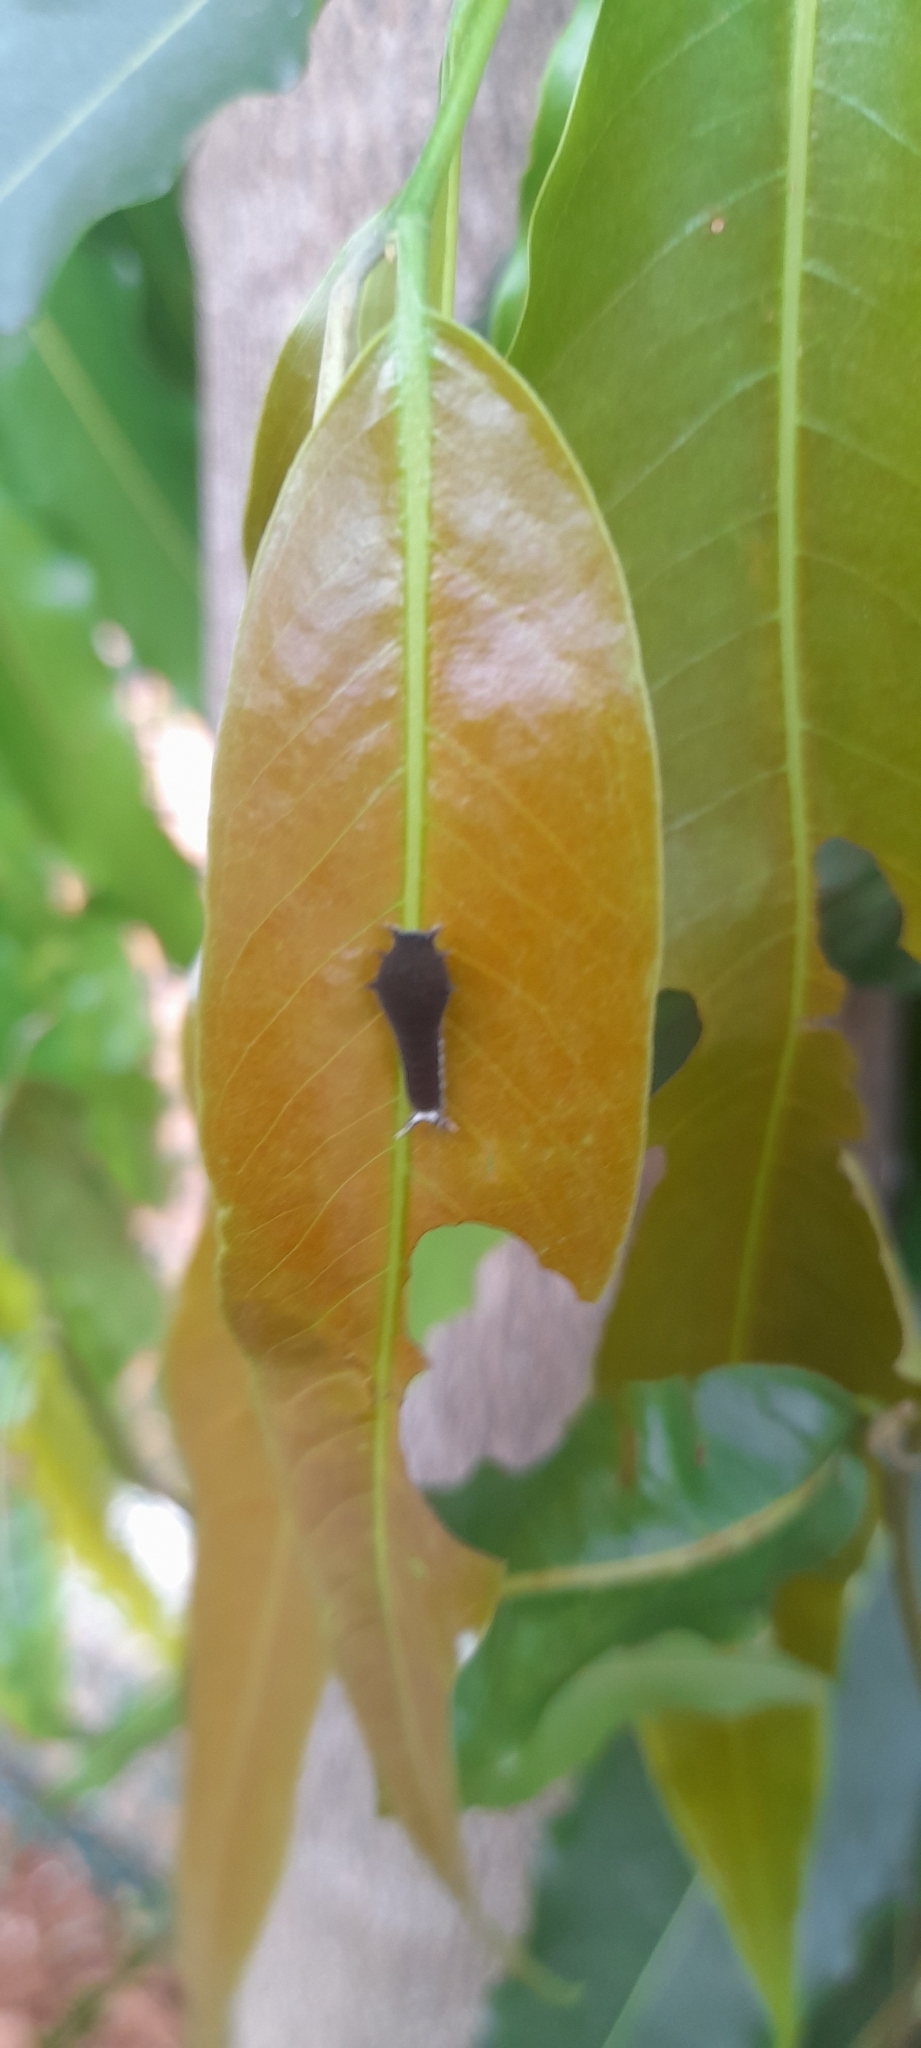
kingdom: Animalia
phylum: Arthropoda
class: Insecta
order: Lepidoptera
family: Papilionidae
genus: Graphium
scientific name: Graphium doson
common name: Common jay
